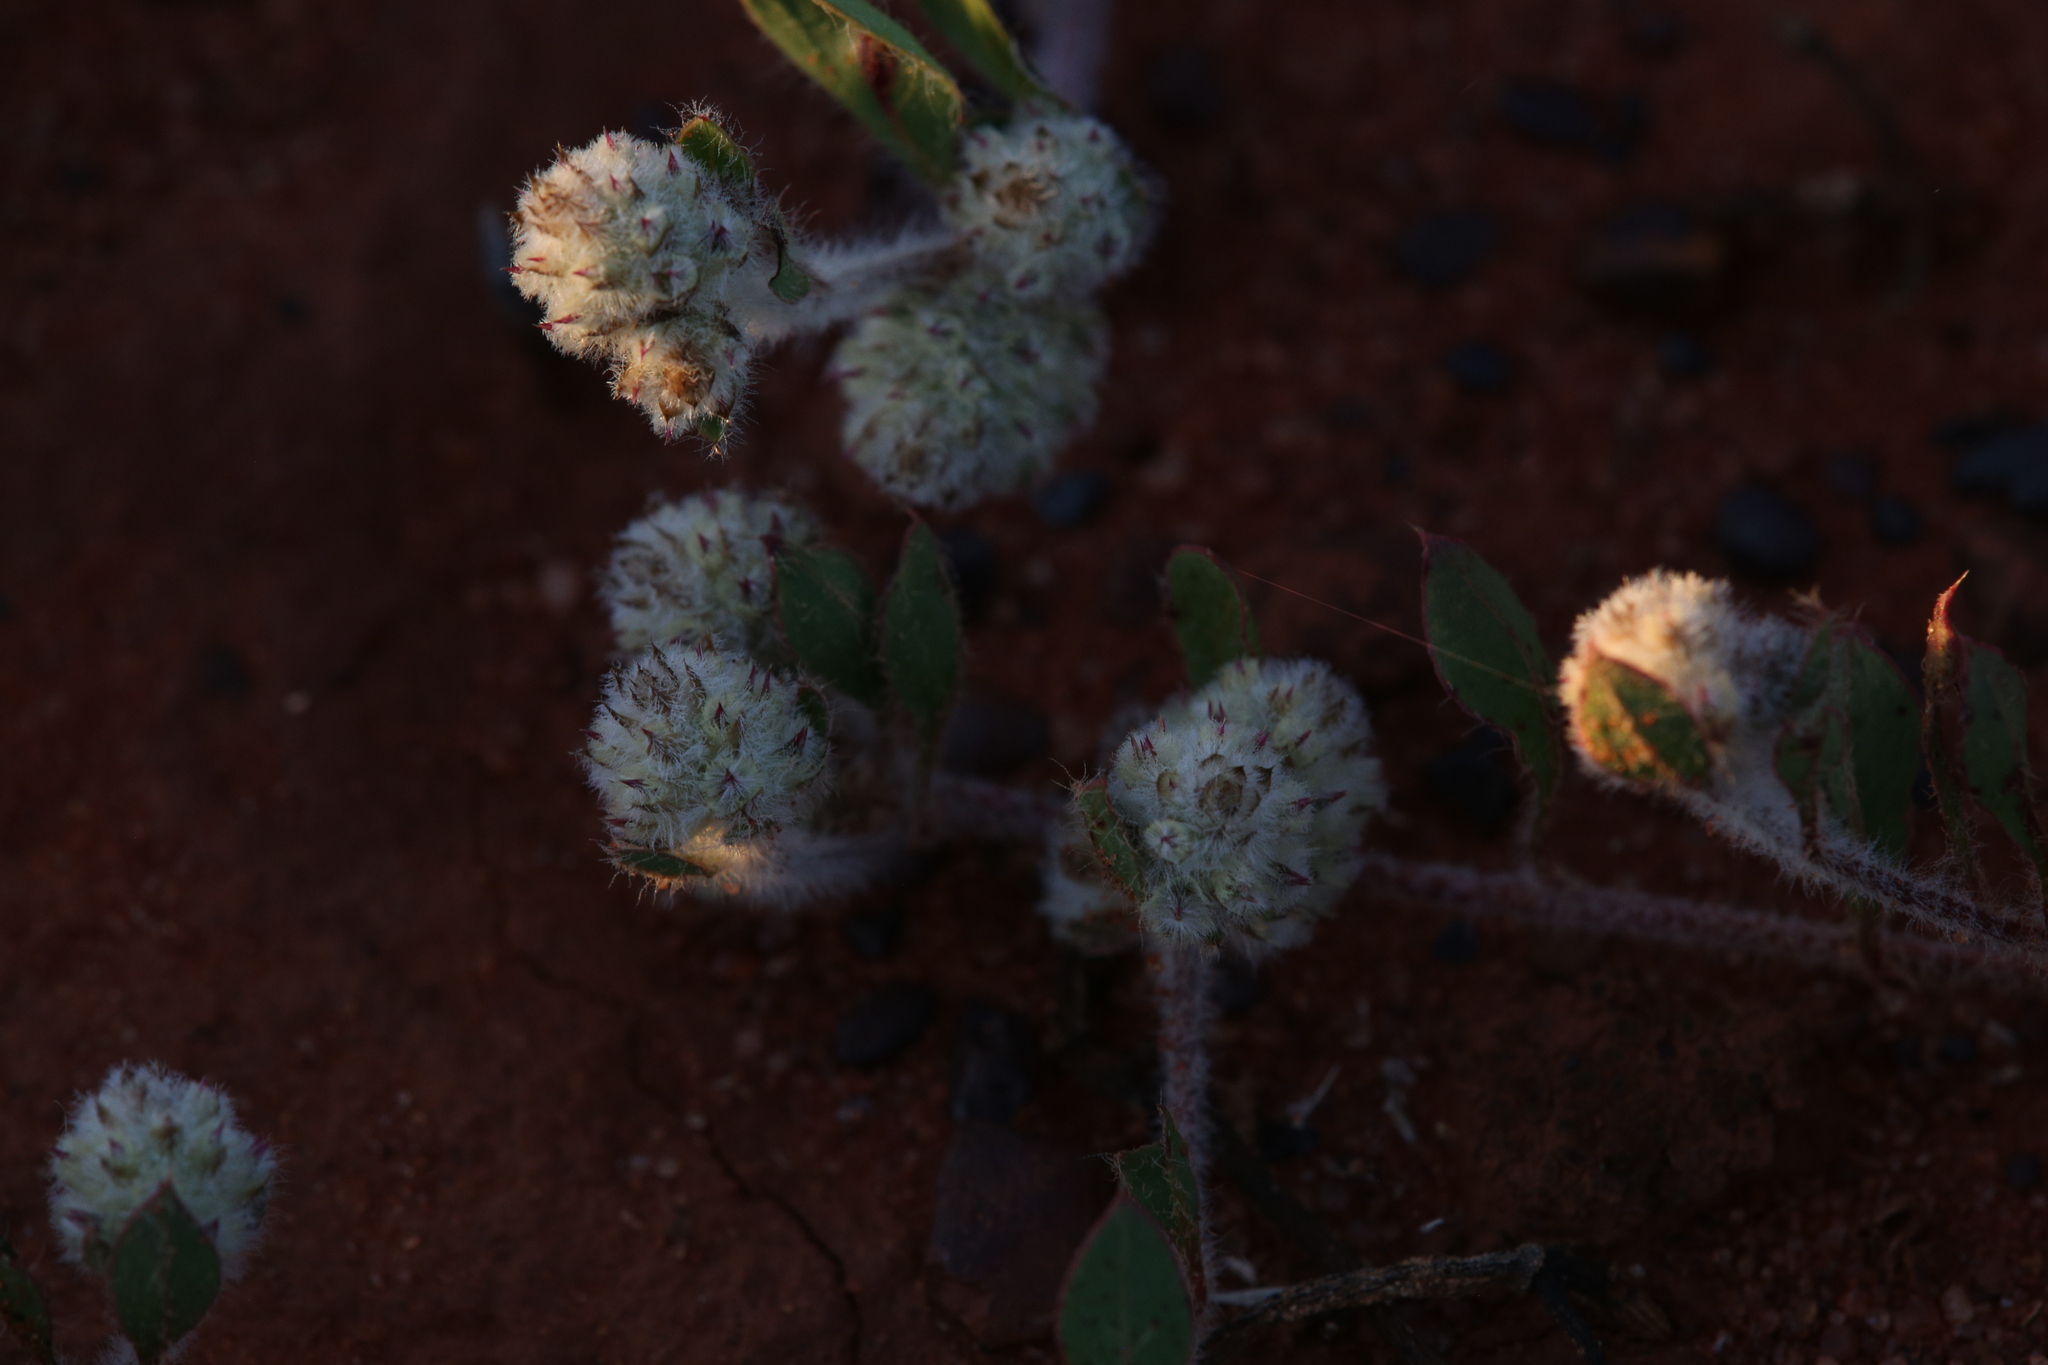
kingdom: Plantae
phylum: Tracheophyta
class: Magnoliopsida
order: Caryophyllales
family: Amaranthaceae
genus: Ptilotus
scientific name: Ptilotus aervoides
